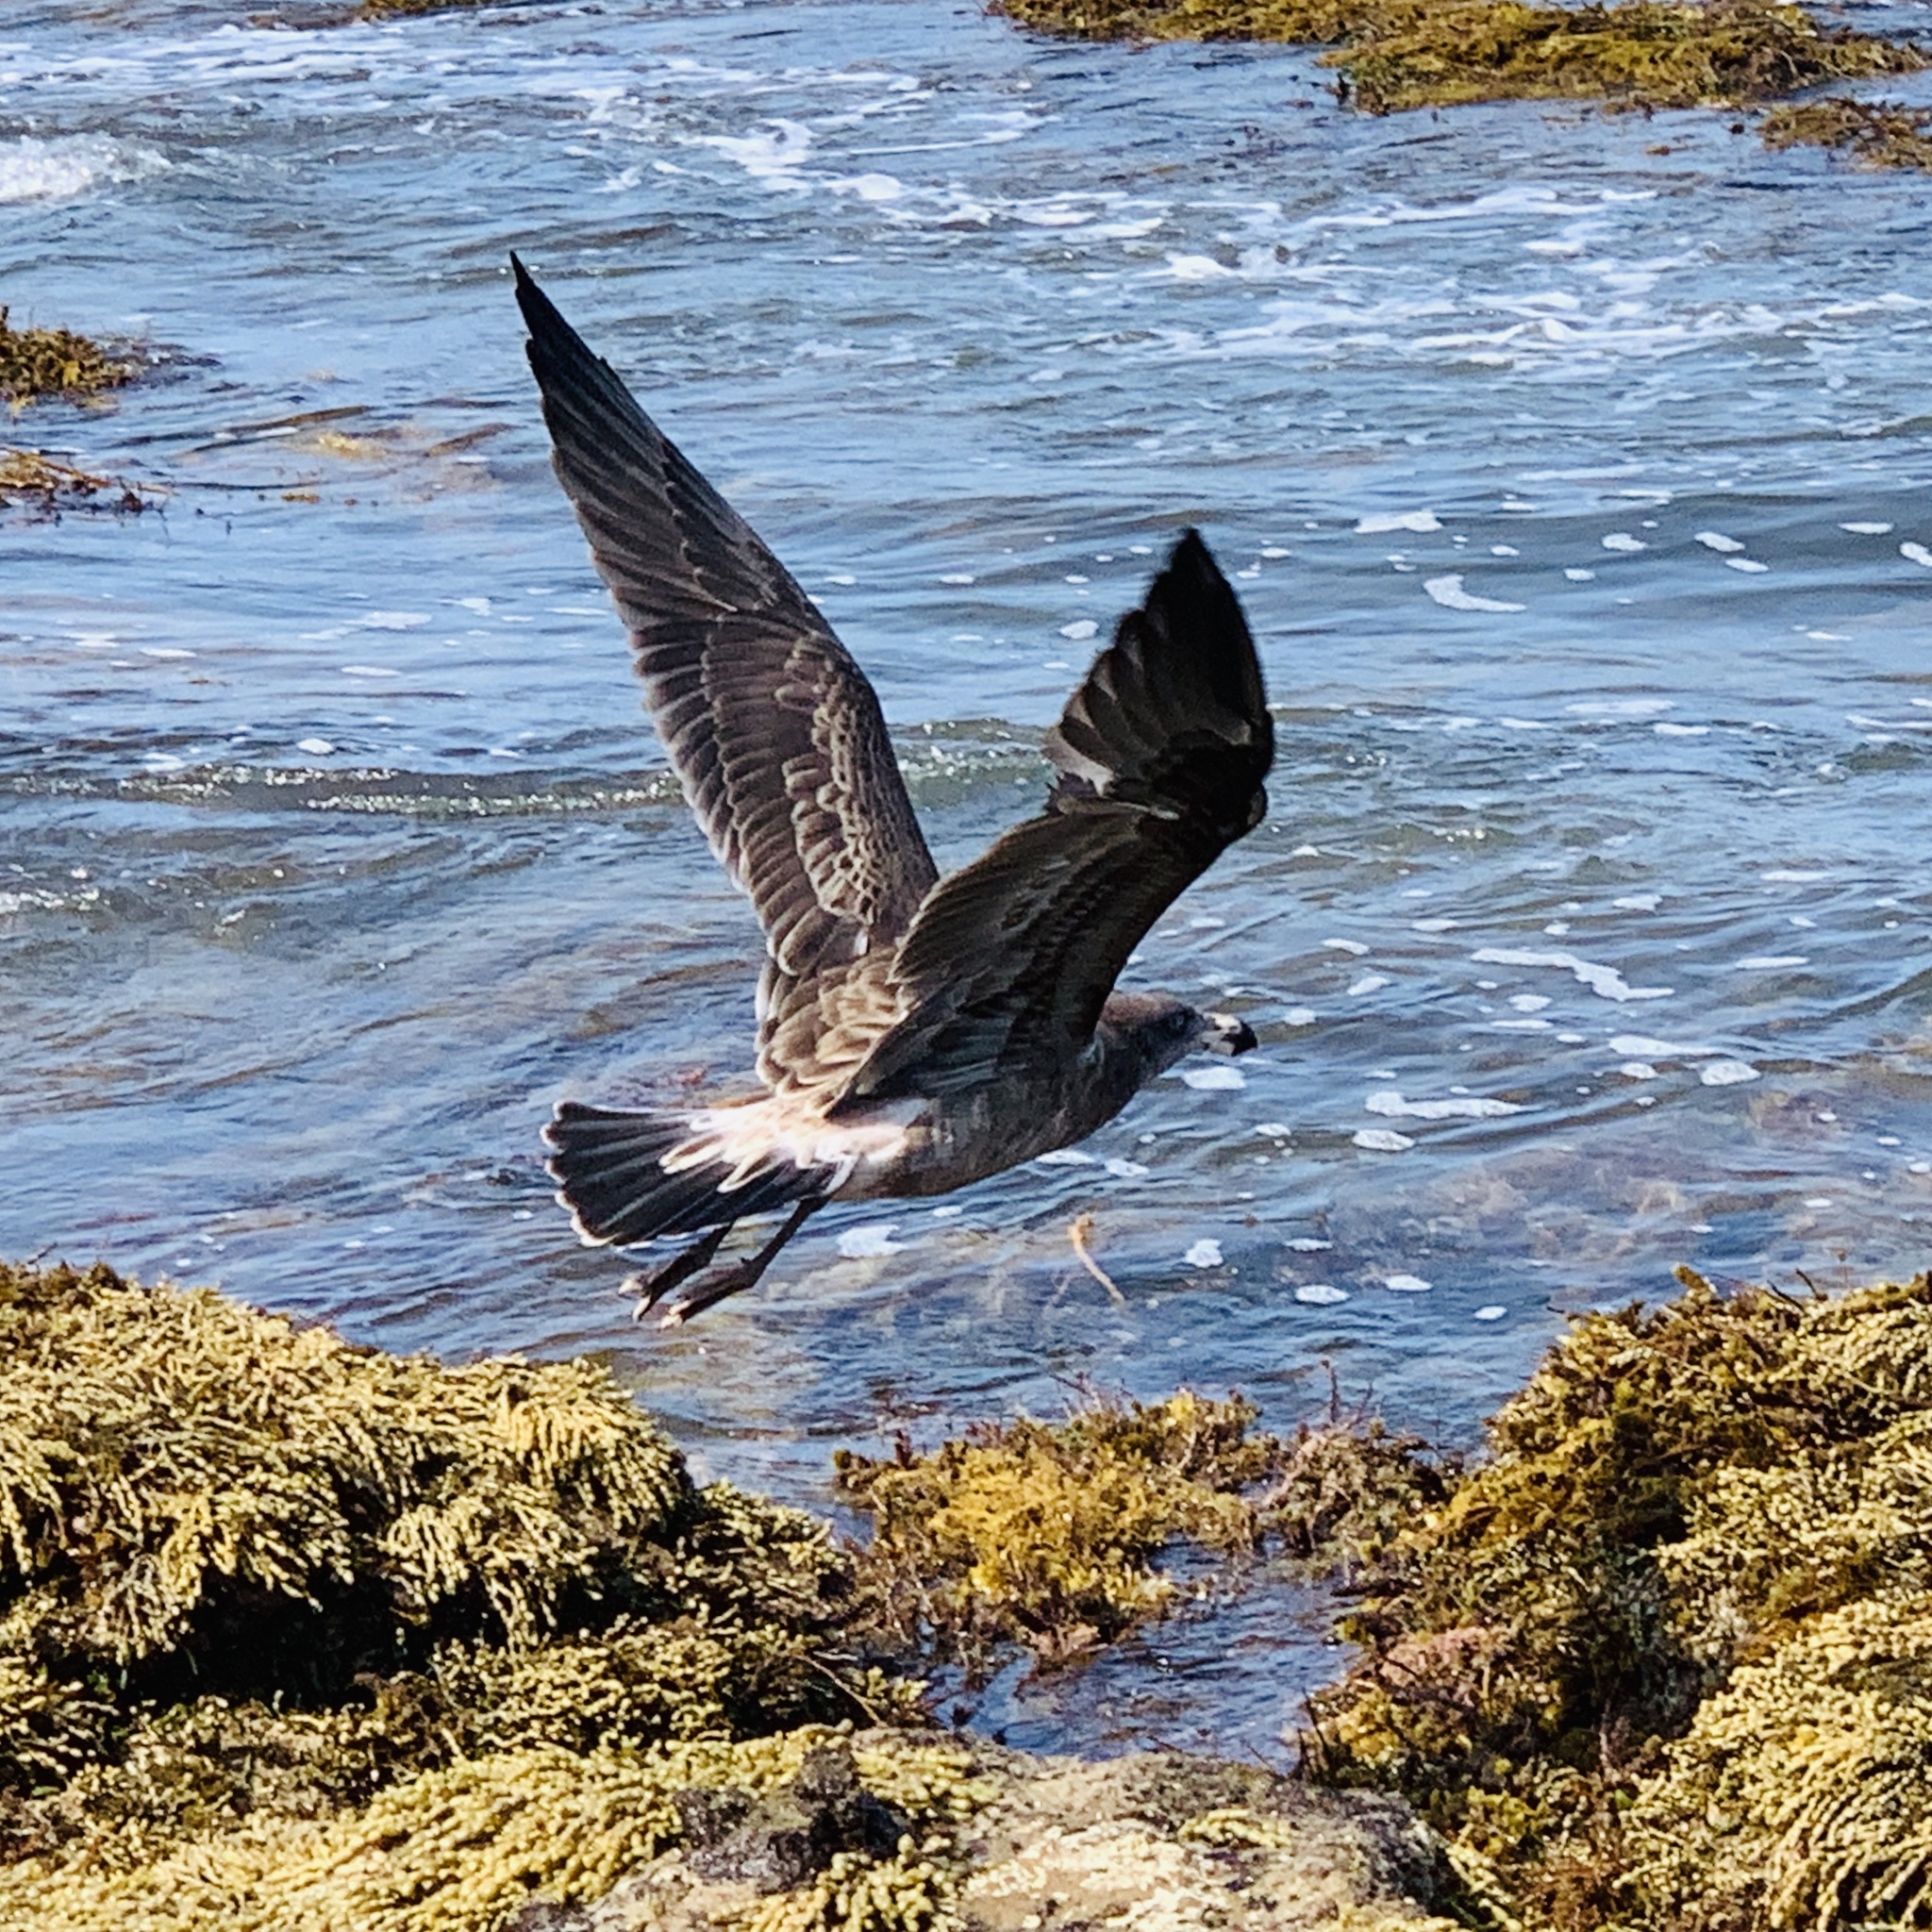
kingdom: Animalia
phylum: Chordata
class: Aves
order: Charadriiformes
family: Laridae
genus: Larus
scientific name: Larus pacificus
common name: Pacific gull
